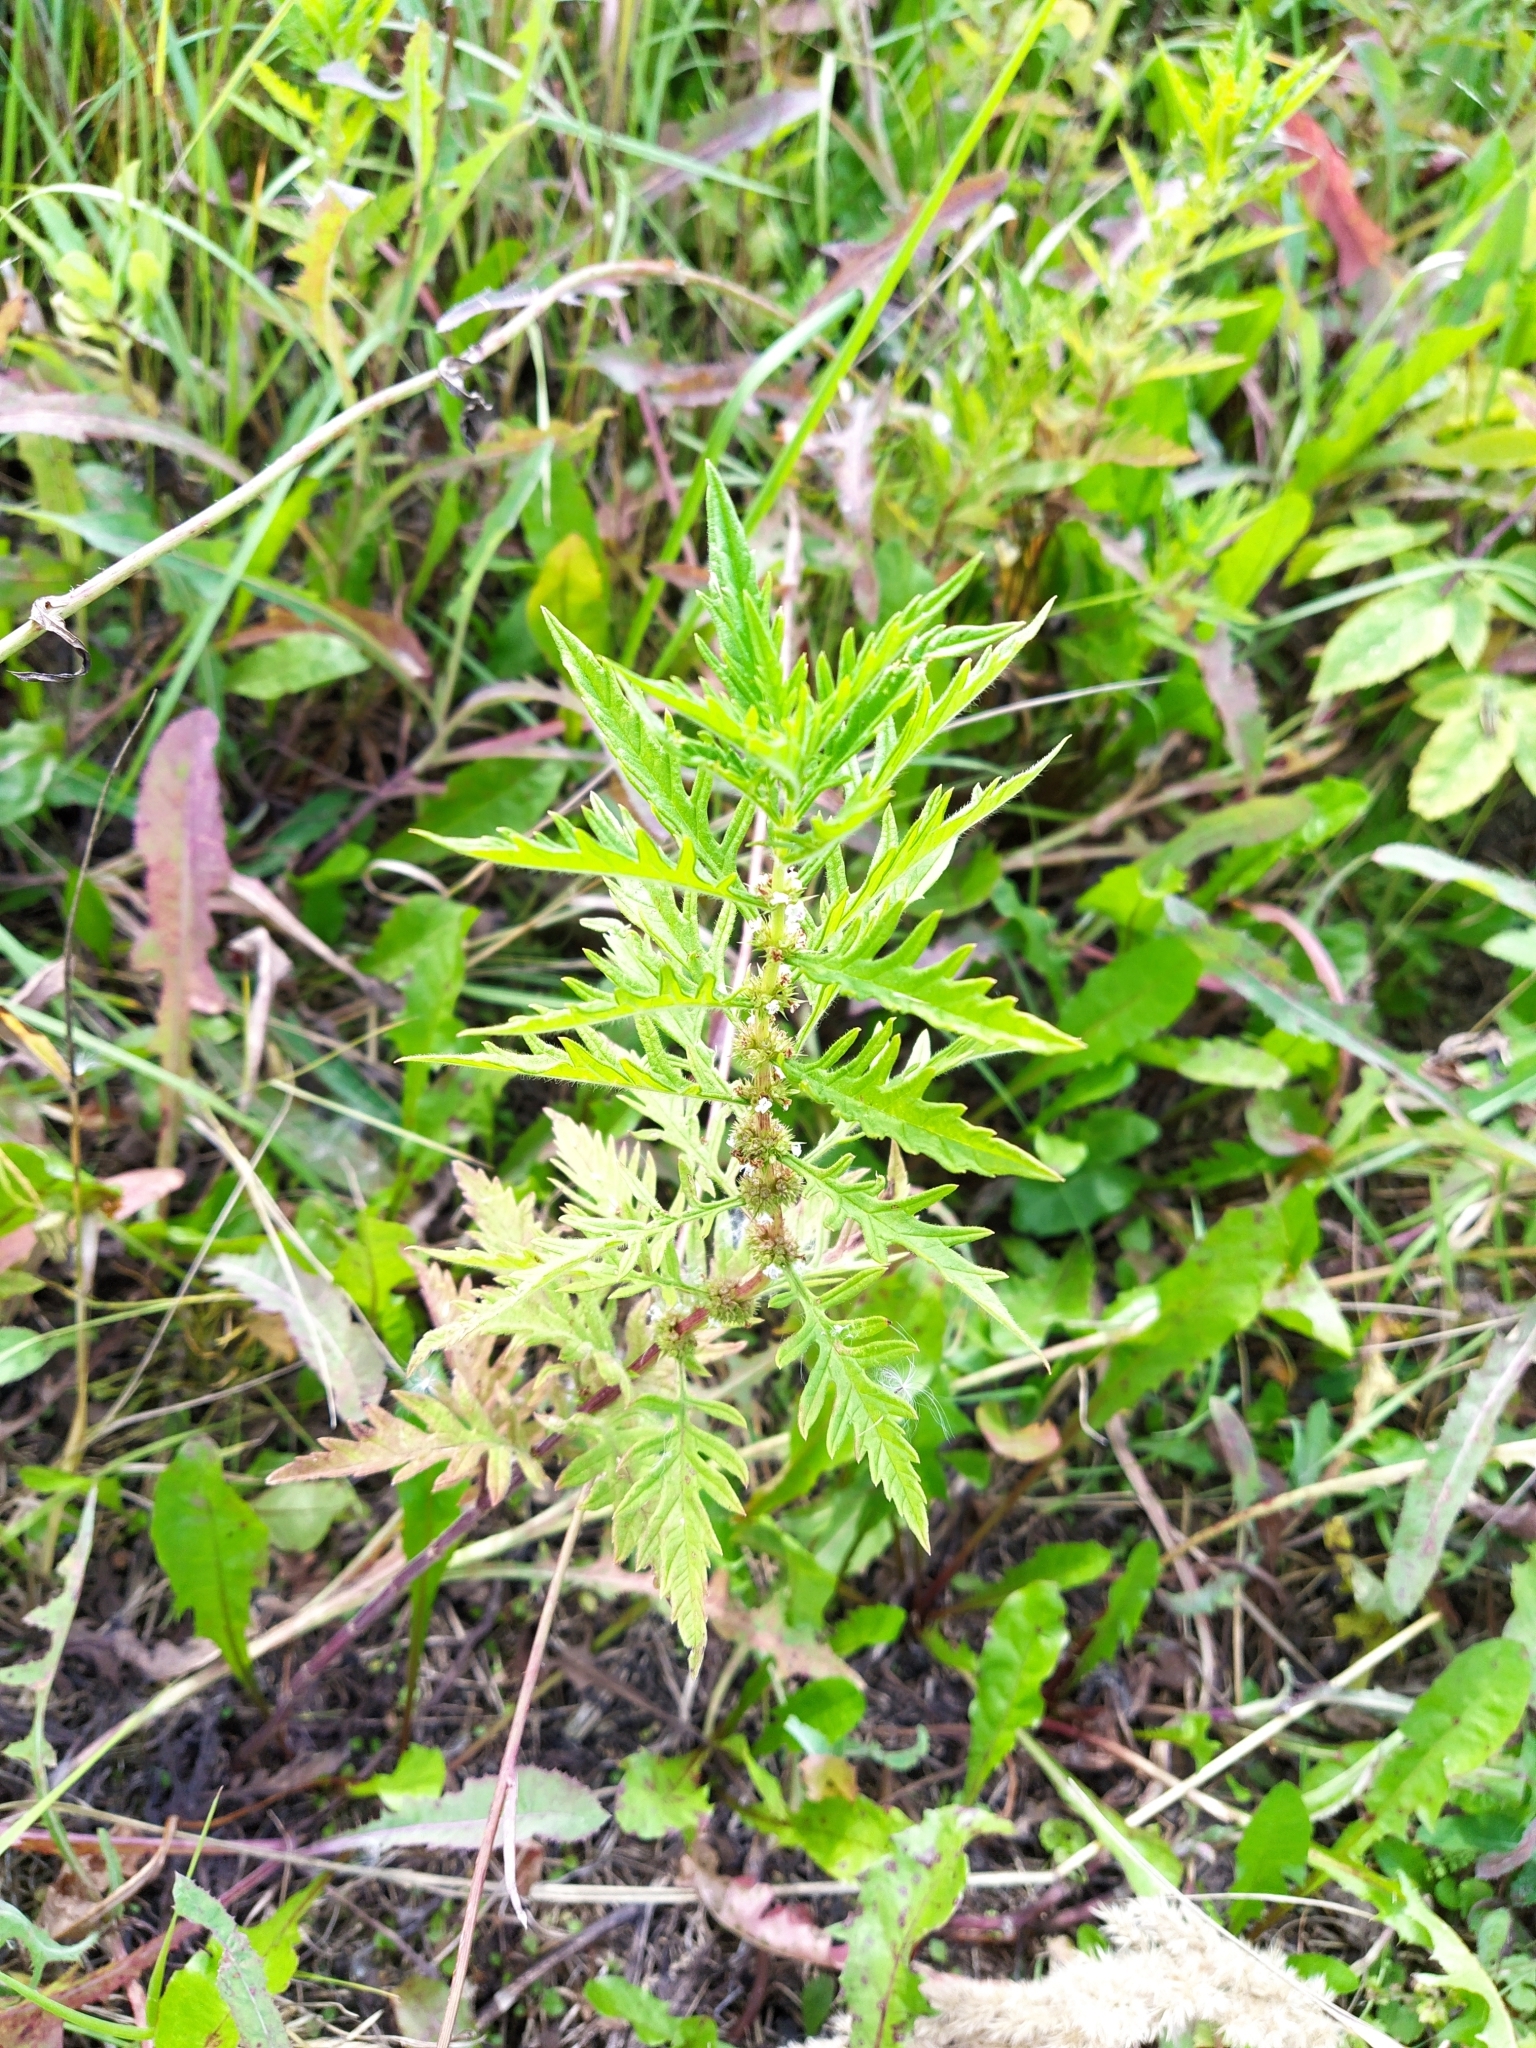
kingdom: Plantae
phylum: Tracheophyta
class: Magnoliopsida
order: Lamiales
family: Lamiaceae
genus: Lycopus
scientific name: Lycopus europaeus
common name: European bugleweed
